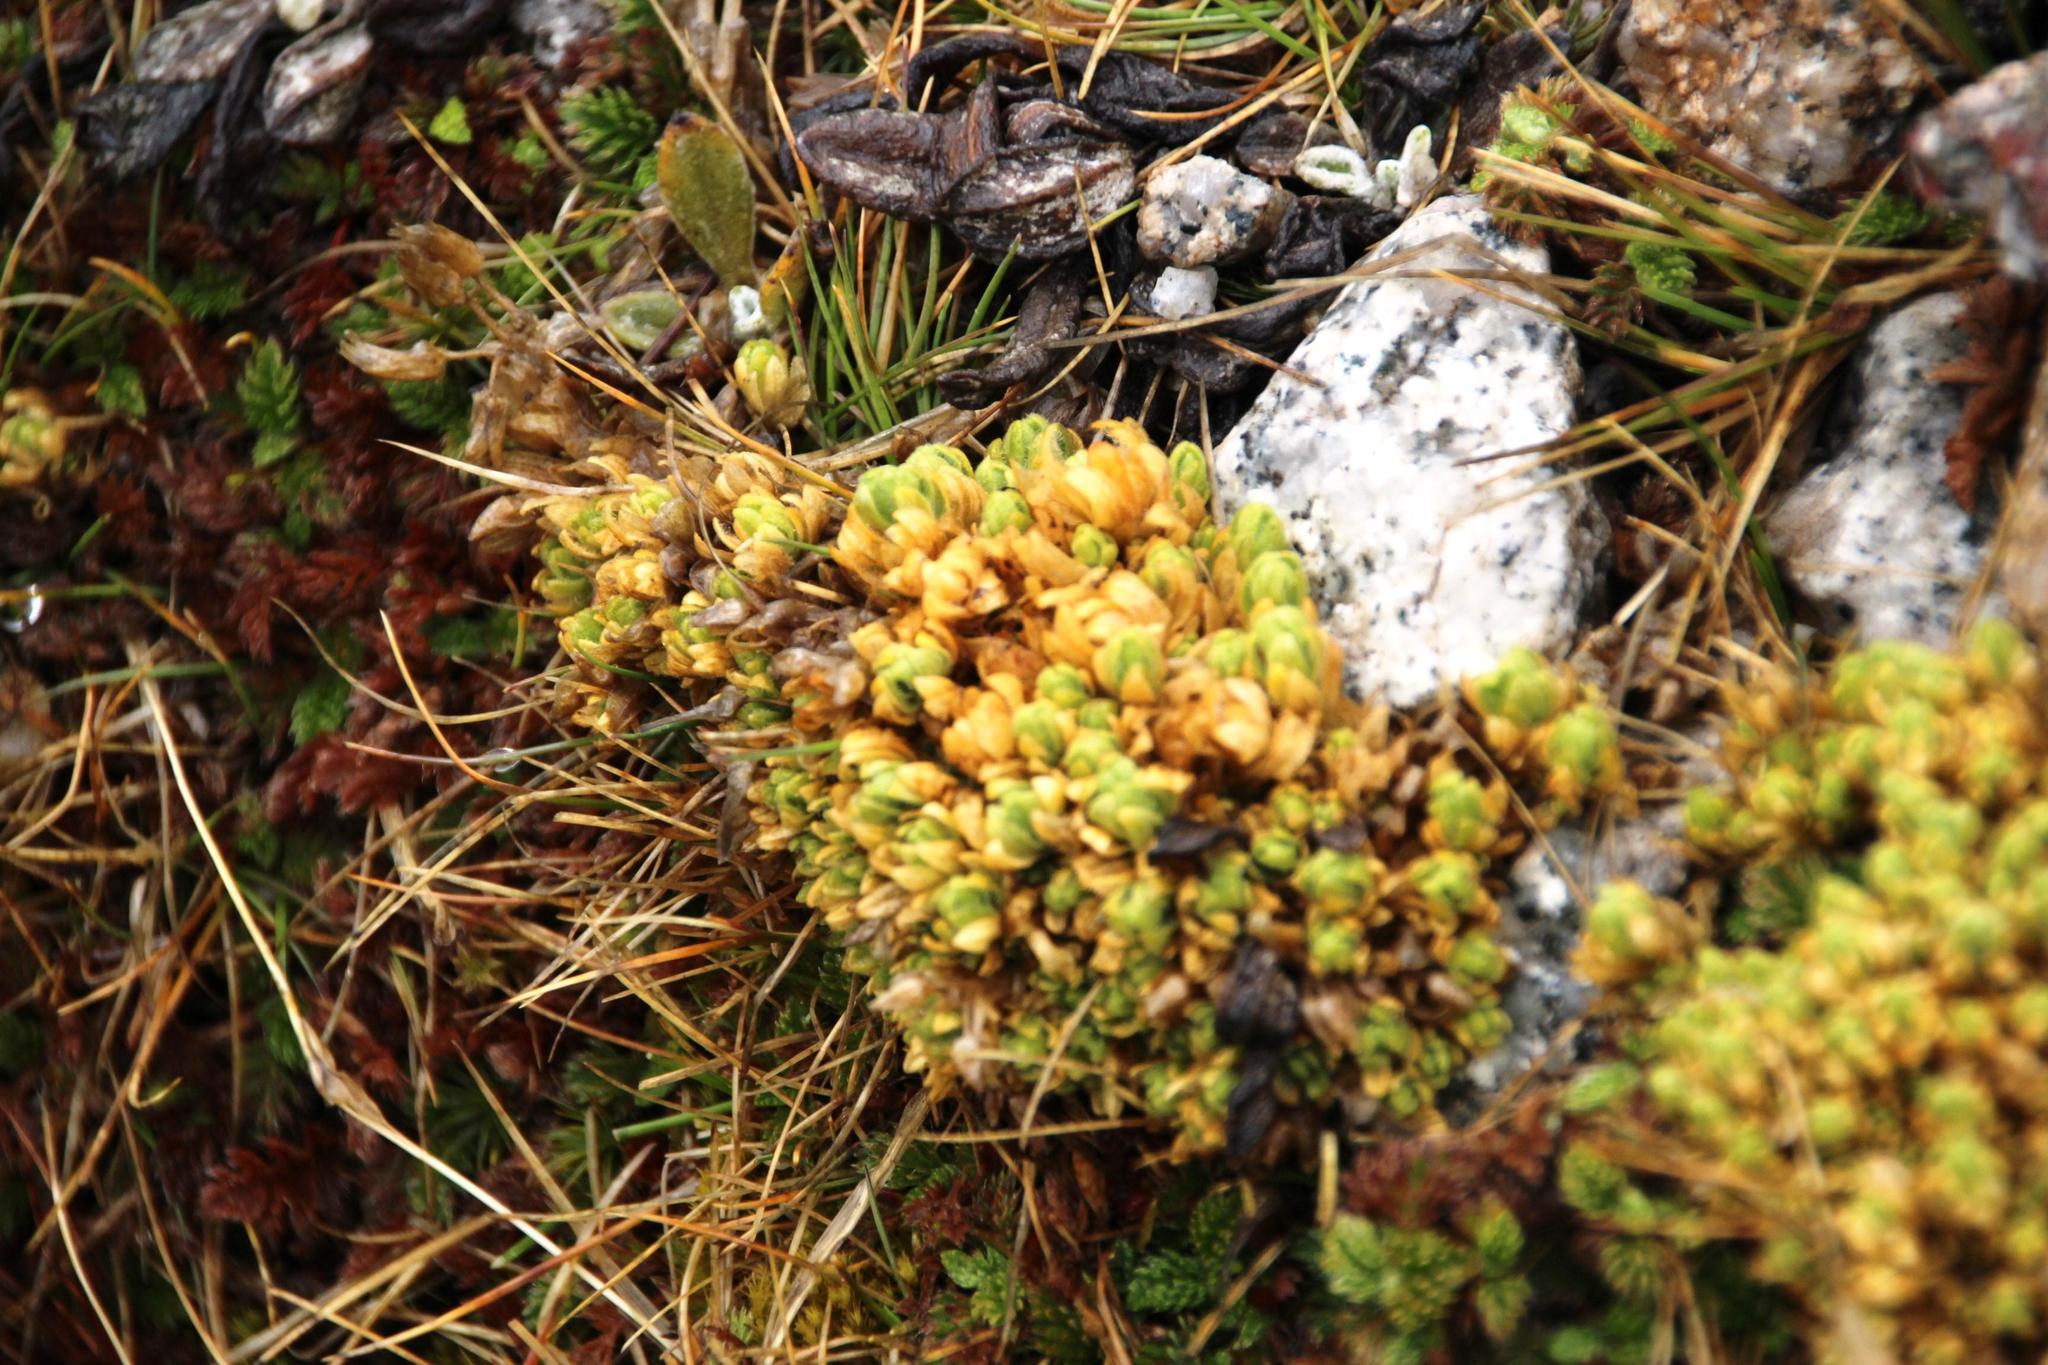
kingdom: Plantae
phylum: Tracheophyta
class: Magnoliopsida
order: Caryophyllales
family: Caryophyllaceae
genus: Cerastium
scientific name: Cerastium crassipes
